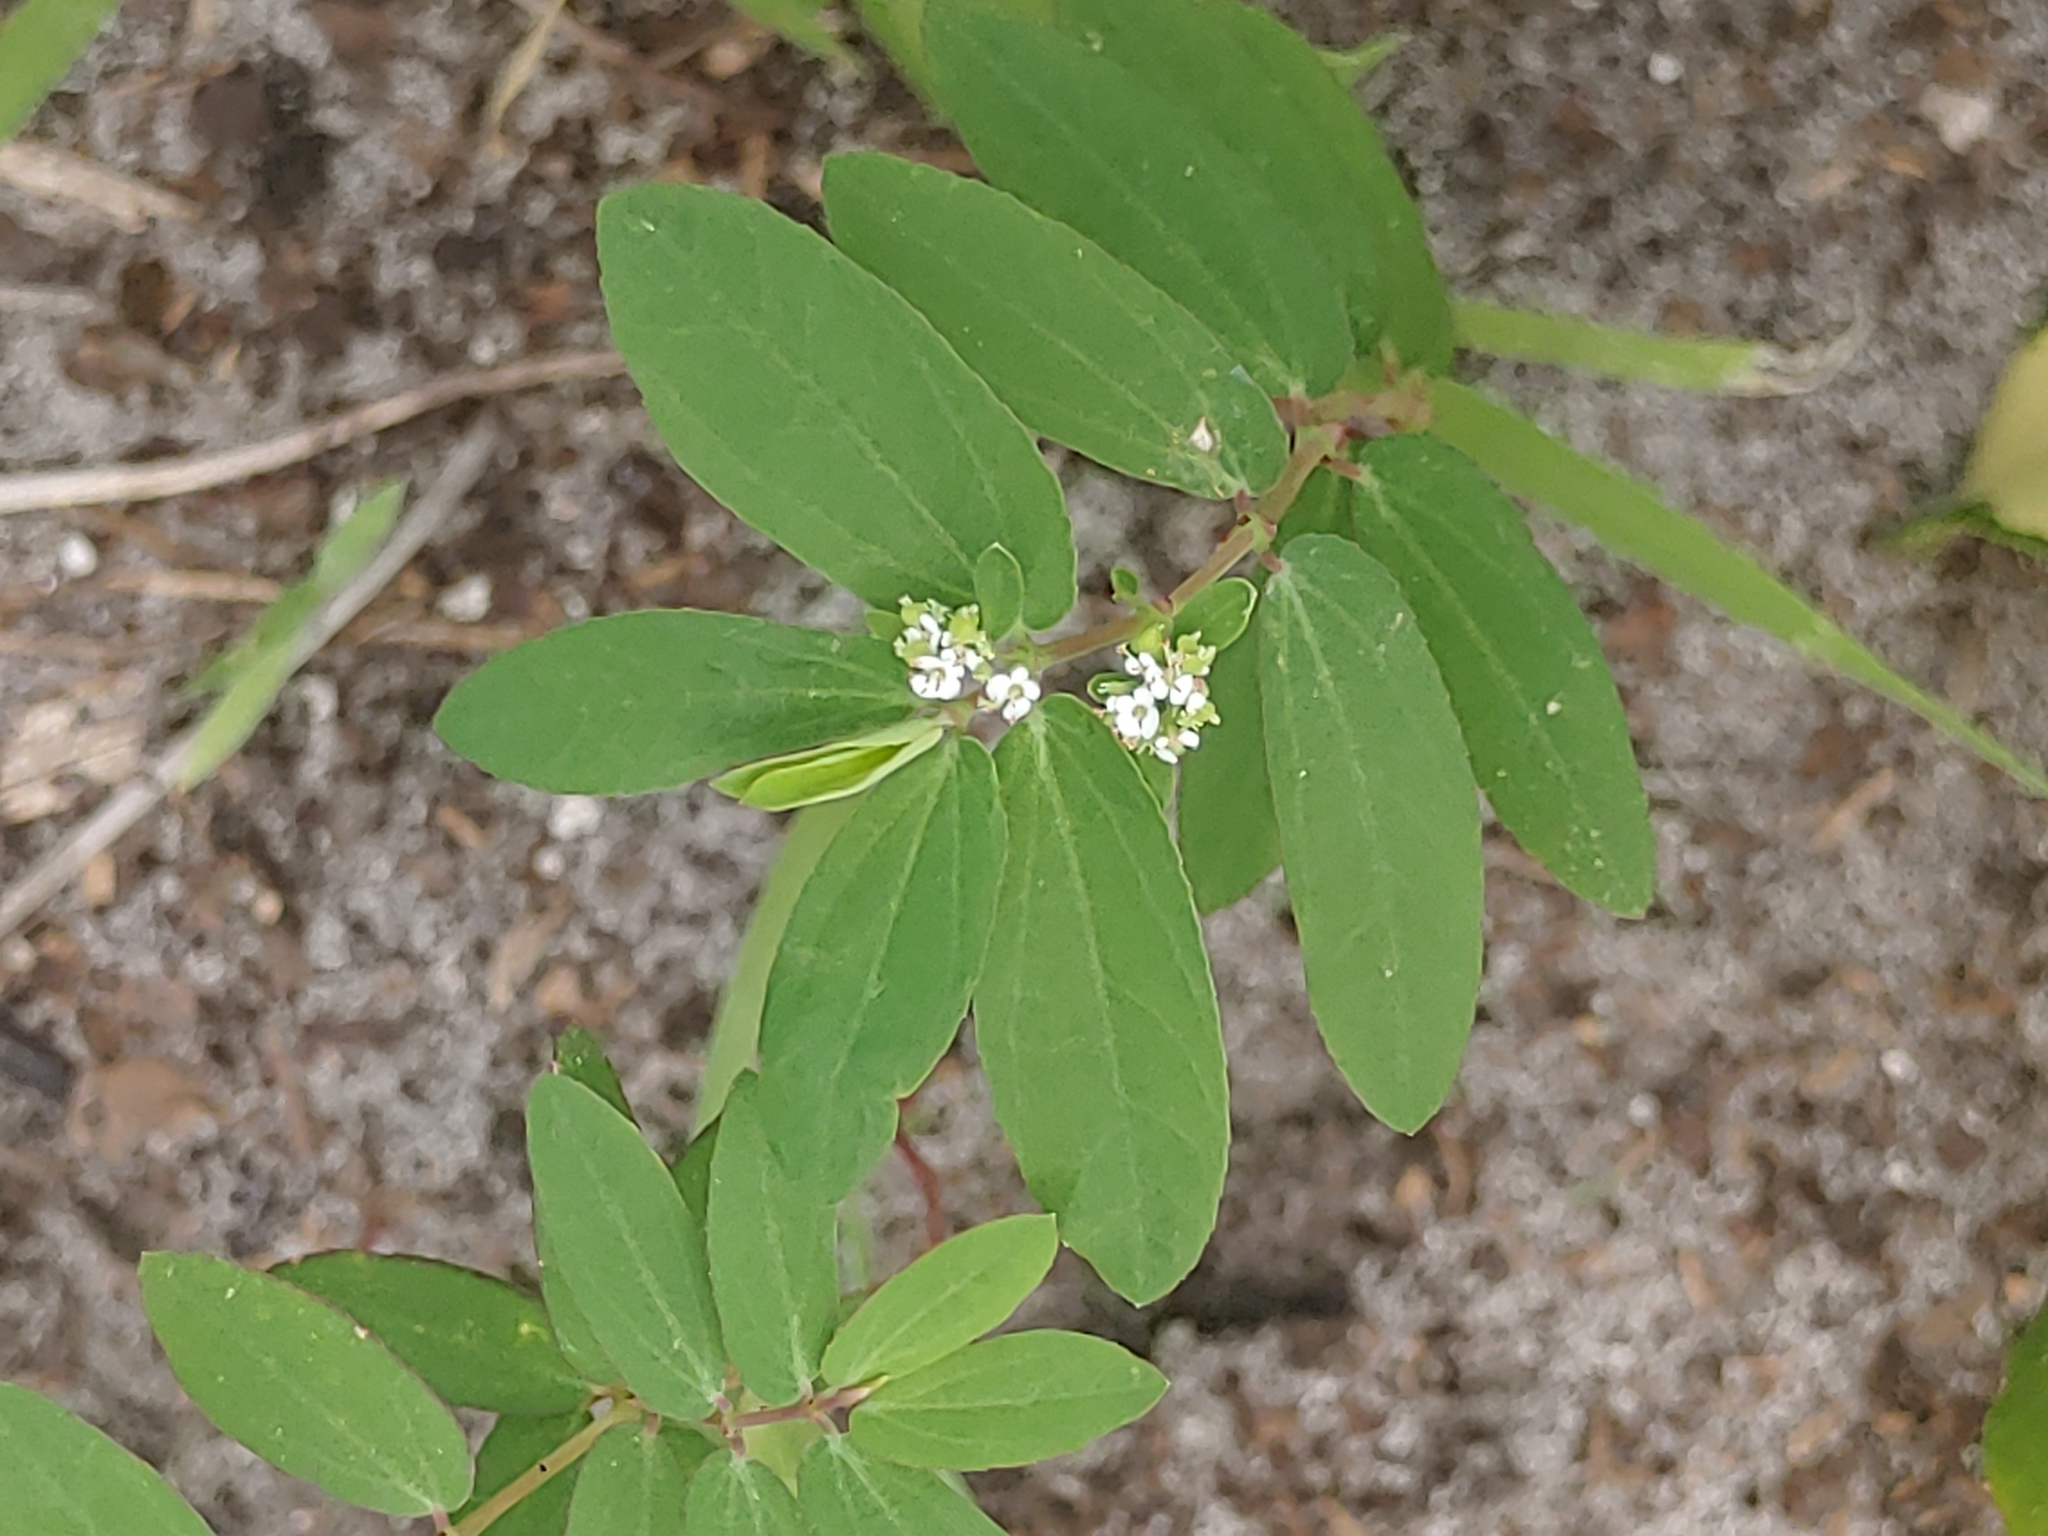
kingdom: Plantae
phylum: Tracheophyta
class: Magnoliopsida
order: Malpighiales
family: Euphorbiaceae
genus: Euphorbia
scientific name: Euphorbia hypericifolia
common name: Graceful sandmat
